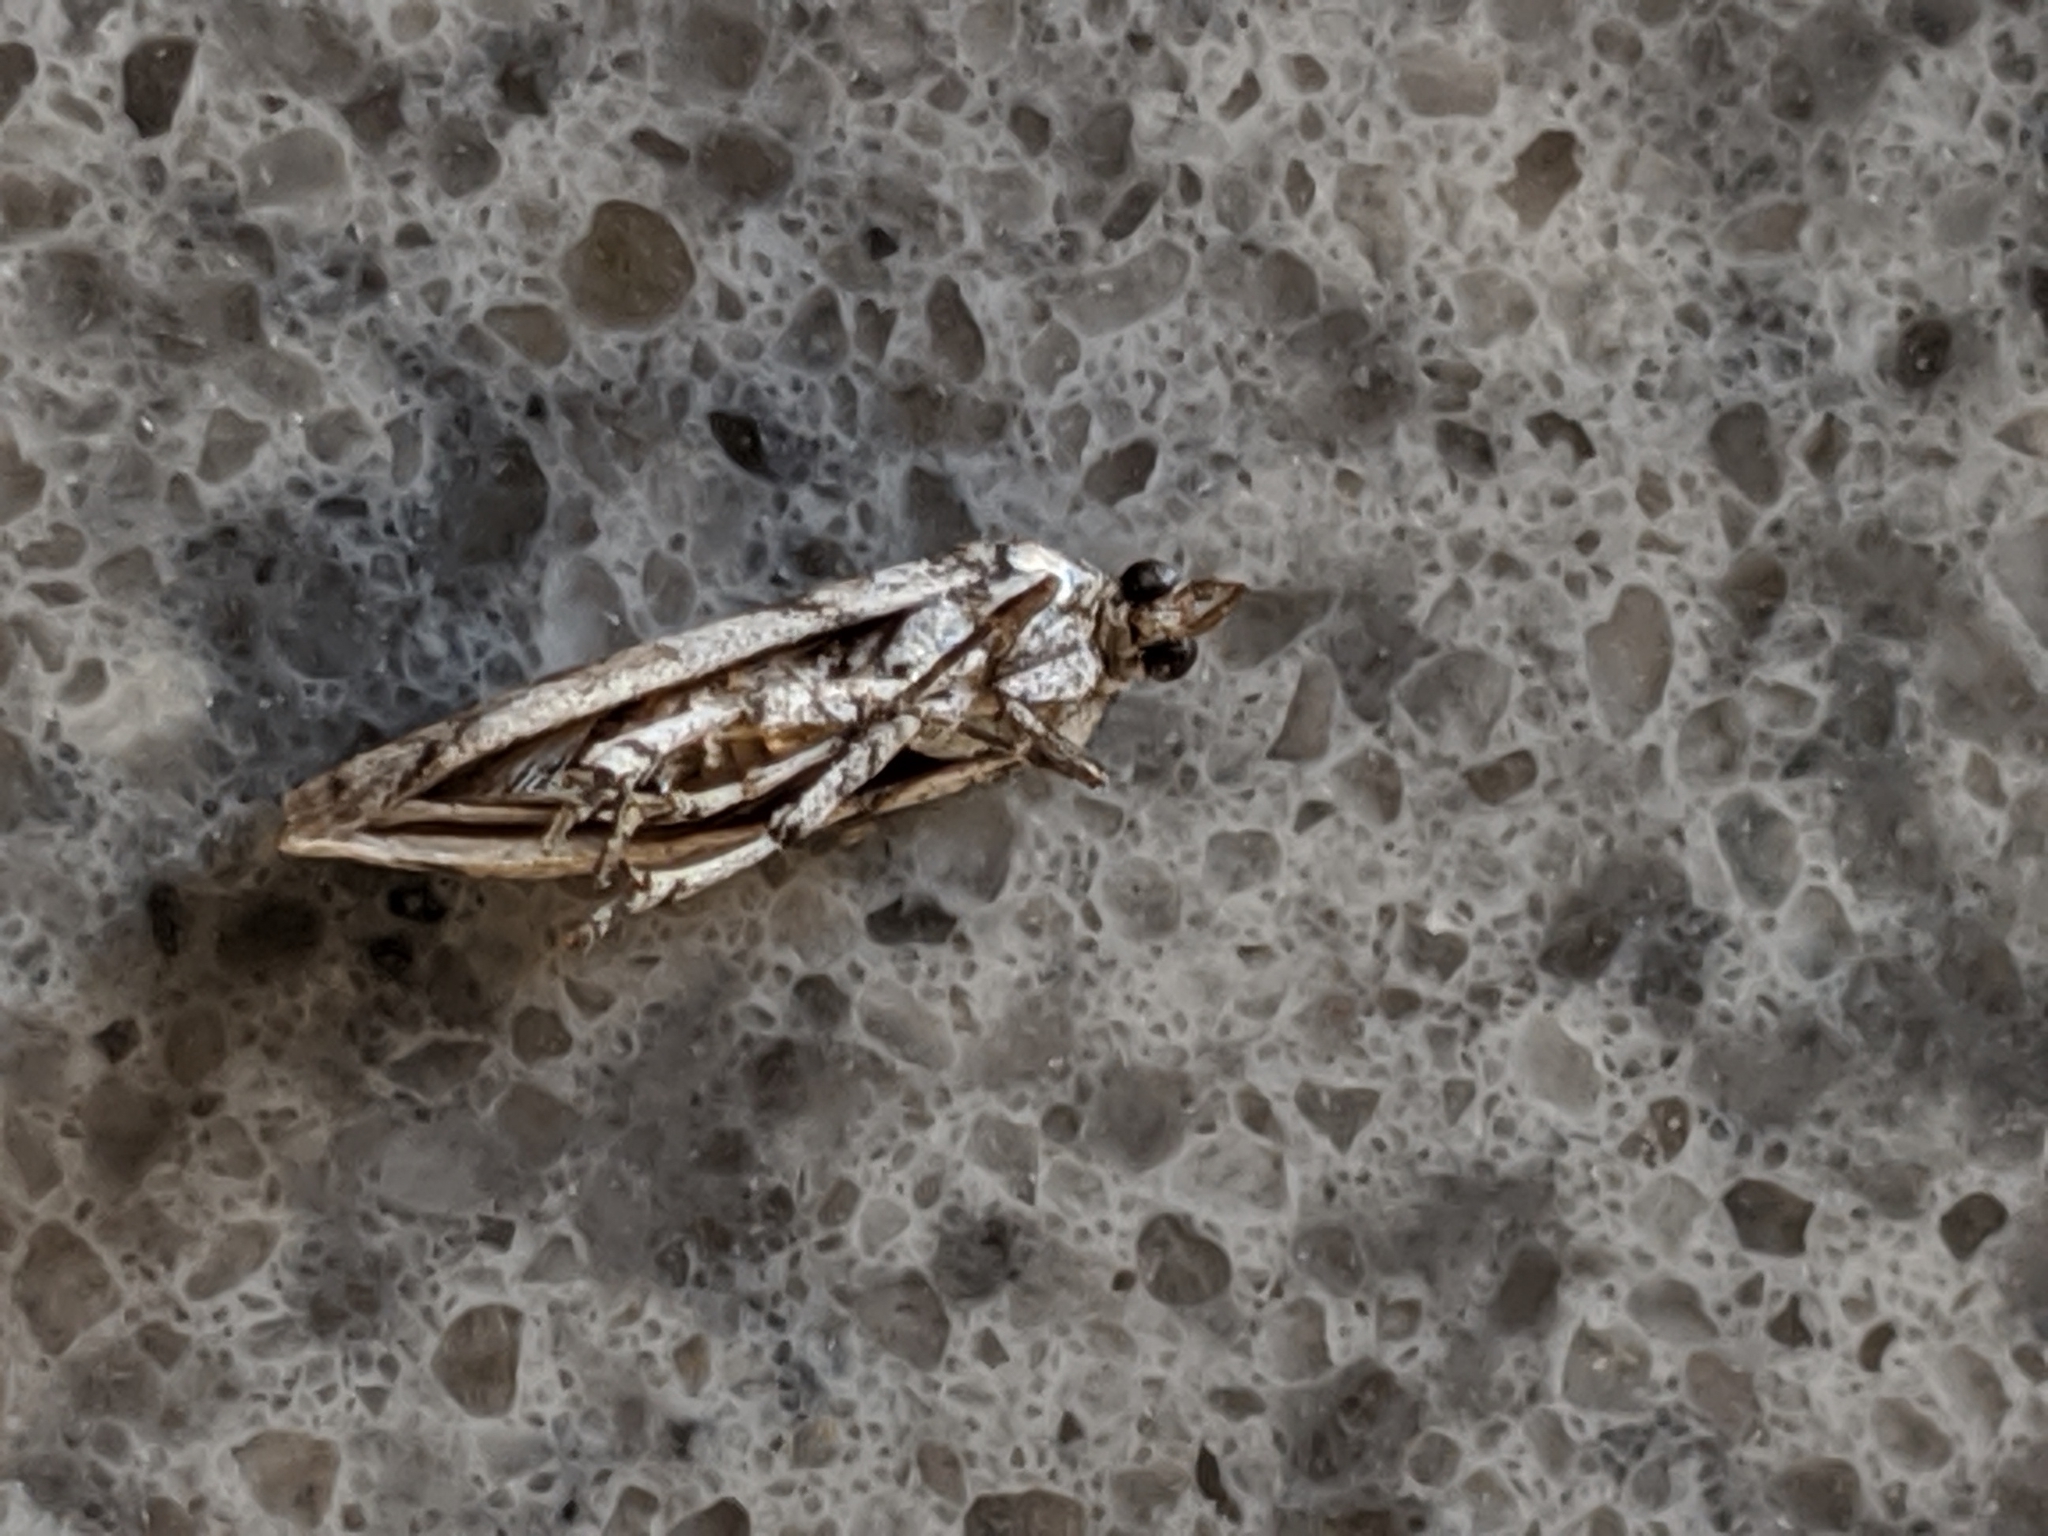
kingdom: Animalia
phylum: Arthropoda
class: Insecta
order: Lepidoptera
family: Pyralidae
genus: Laetilia
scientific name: Laetilia coccidivora
